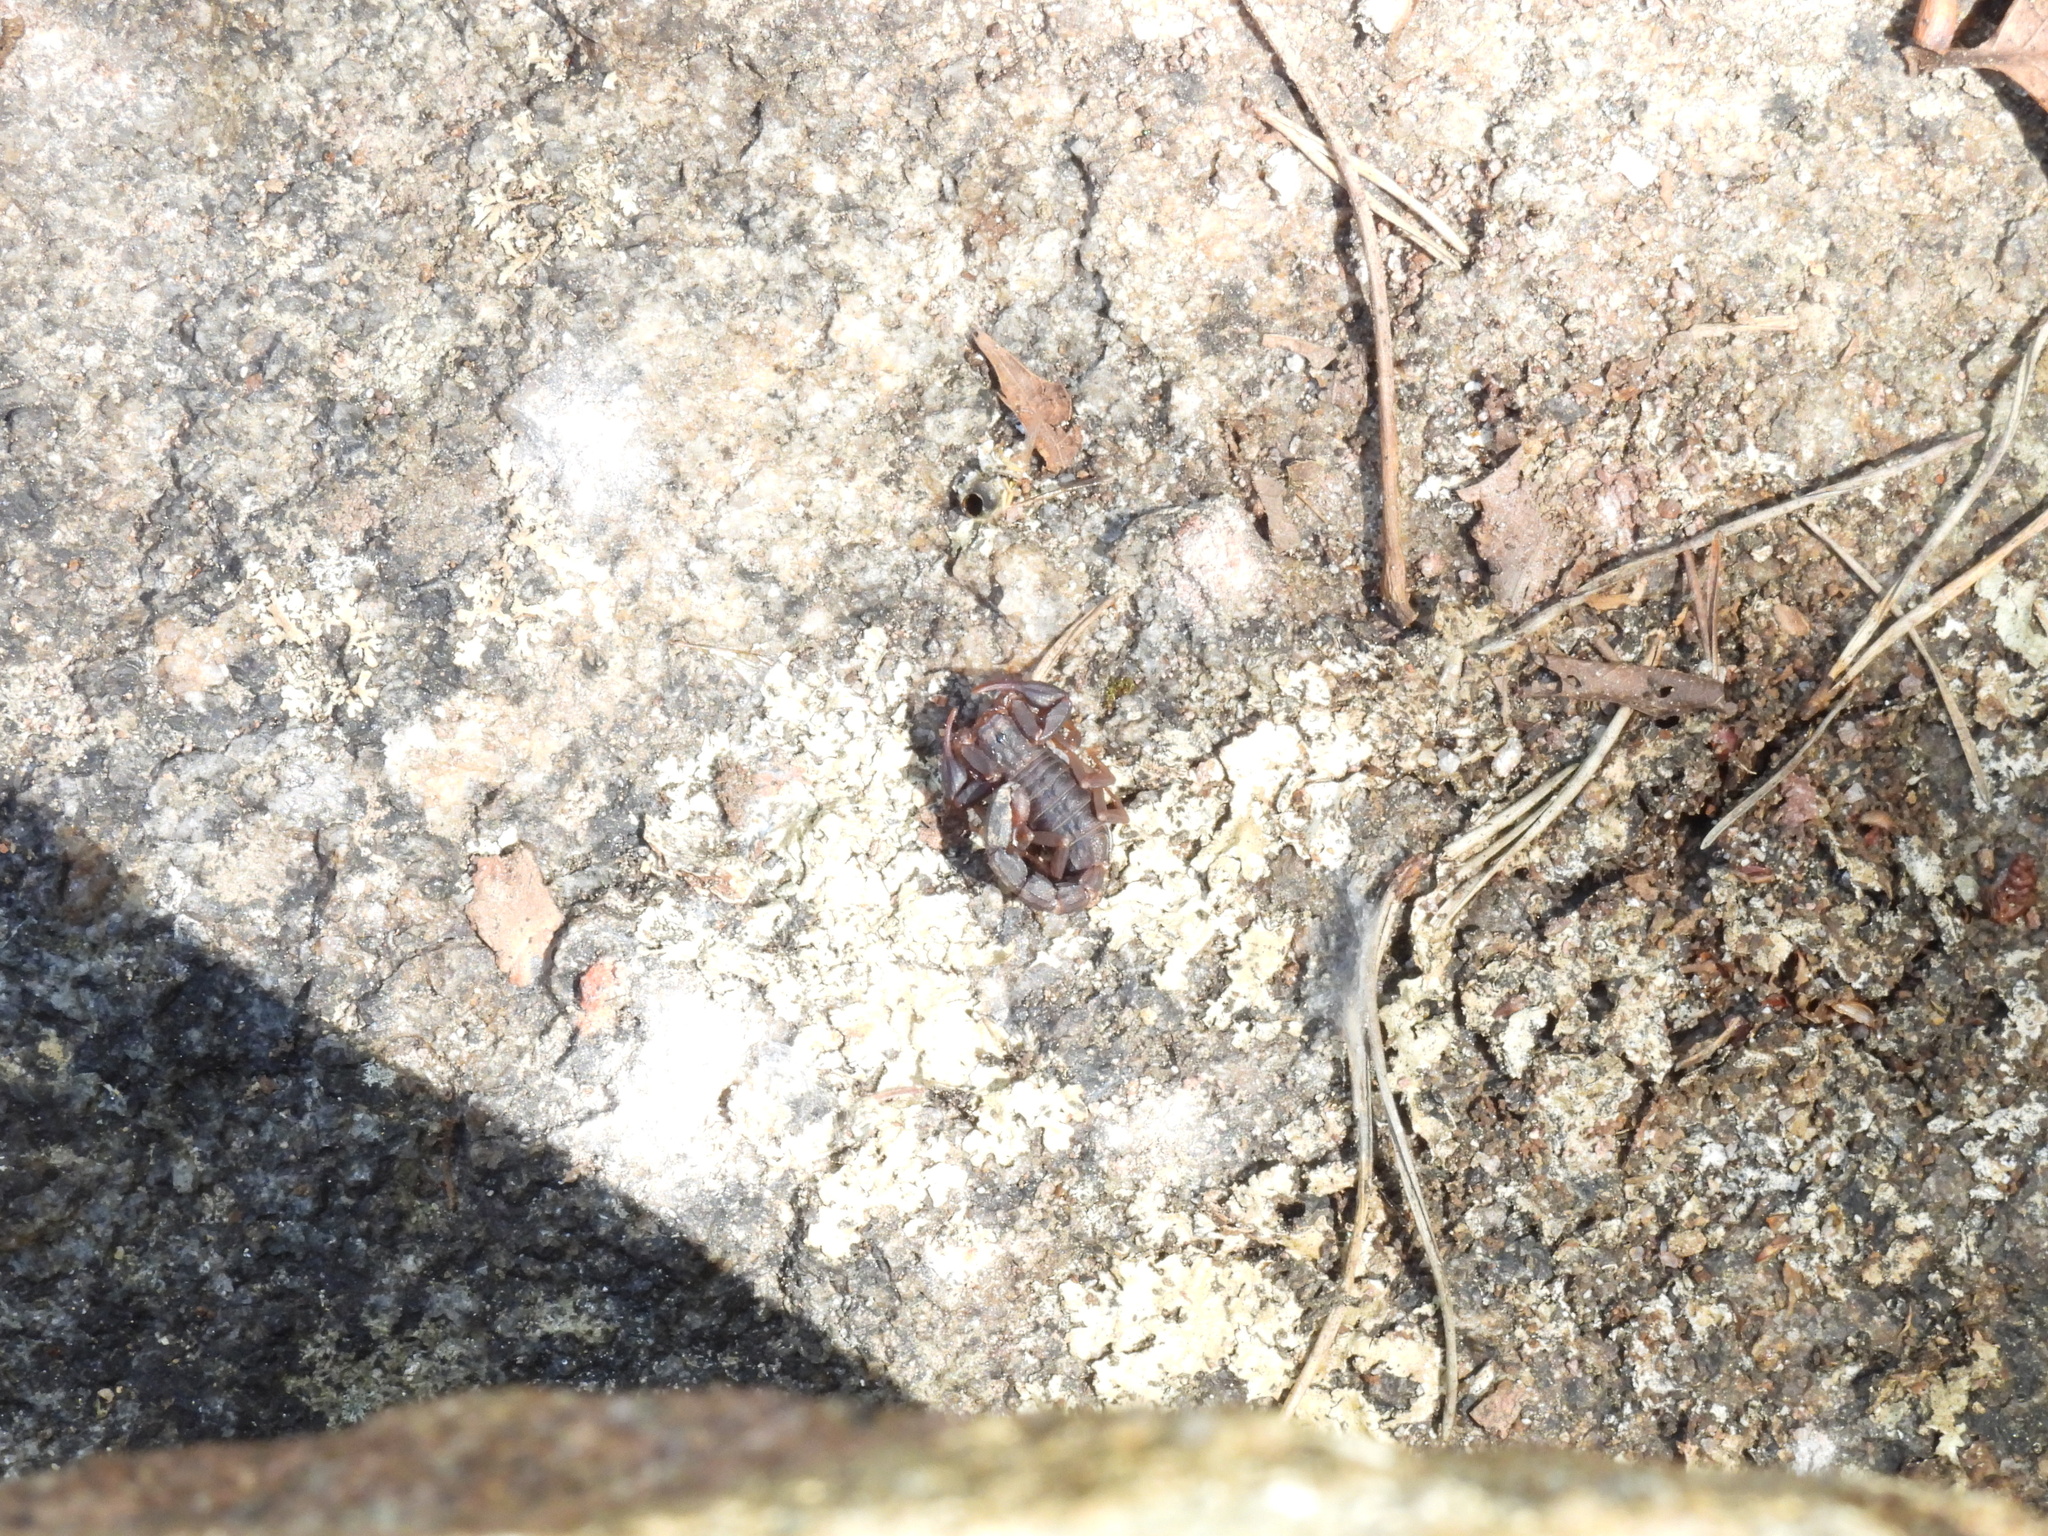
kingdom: Animalia
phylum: Arthropoda
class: Arachnida
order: Scorpiones
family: Vaejovidae
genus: Vaejovis
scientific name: Vaejovis carolinianus
